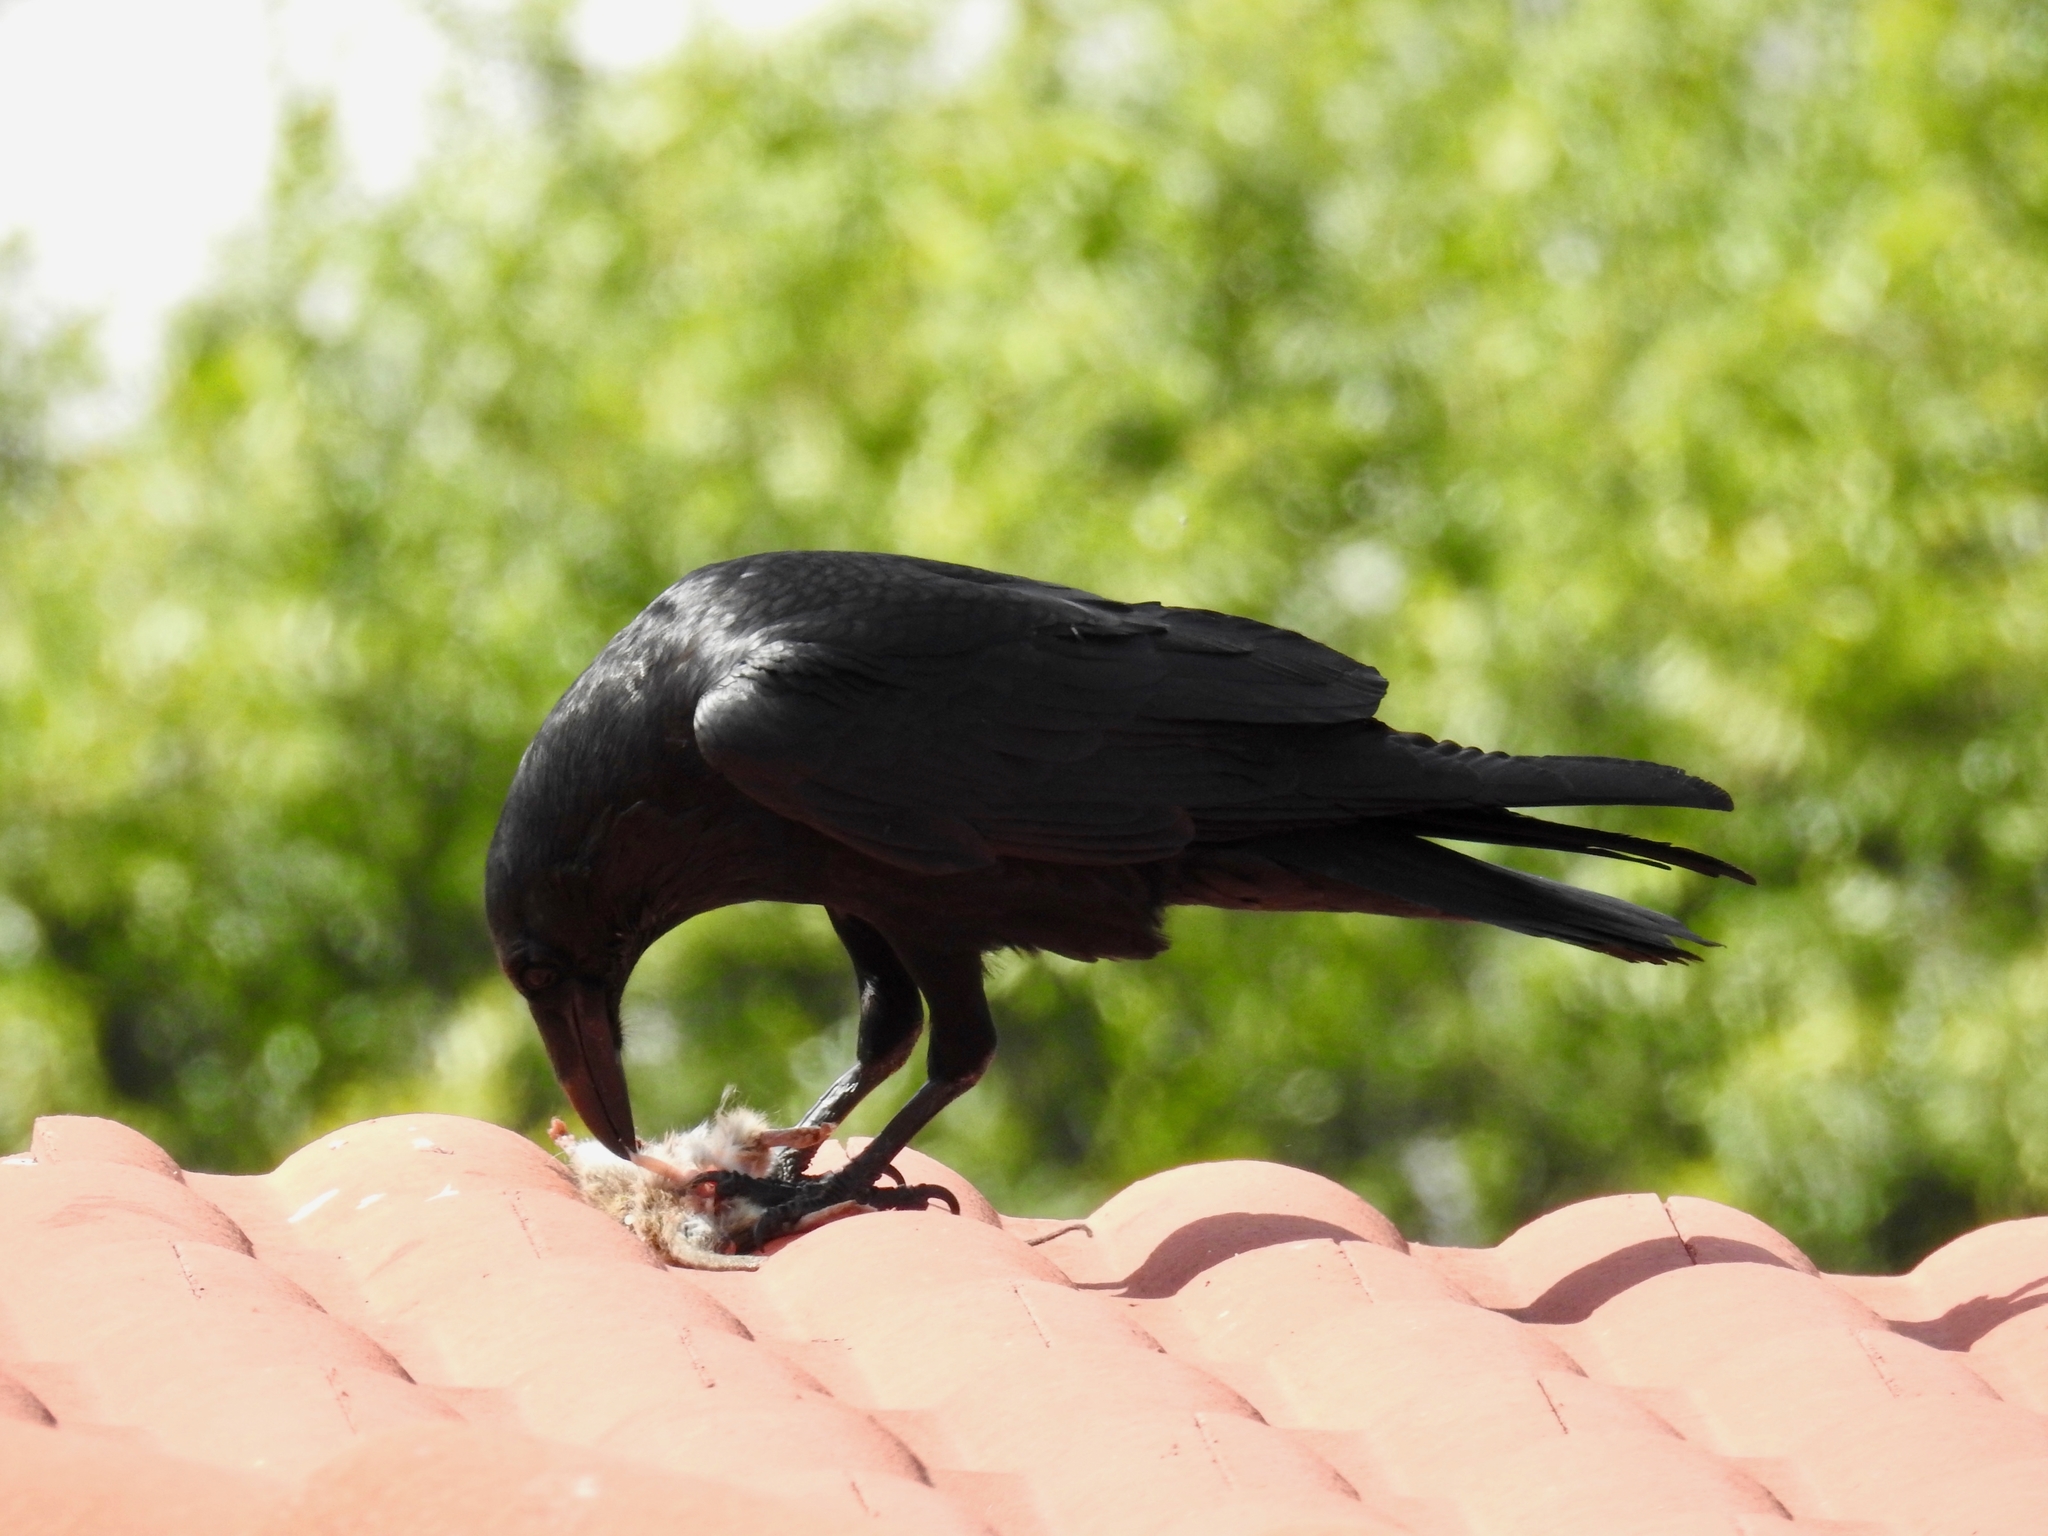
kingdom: Animalia
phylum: Chordata
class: Aves
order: Passeriformes
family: Corvidae
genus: Corvus
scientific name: Corvus corax
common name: Common raven
